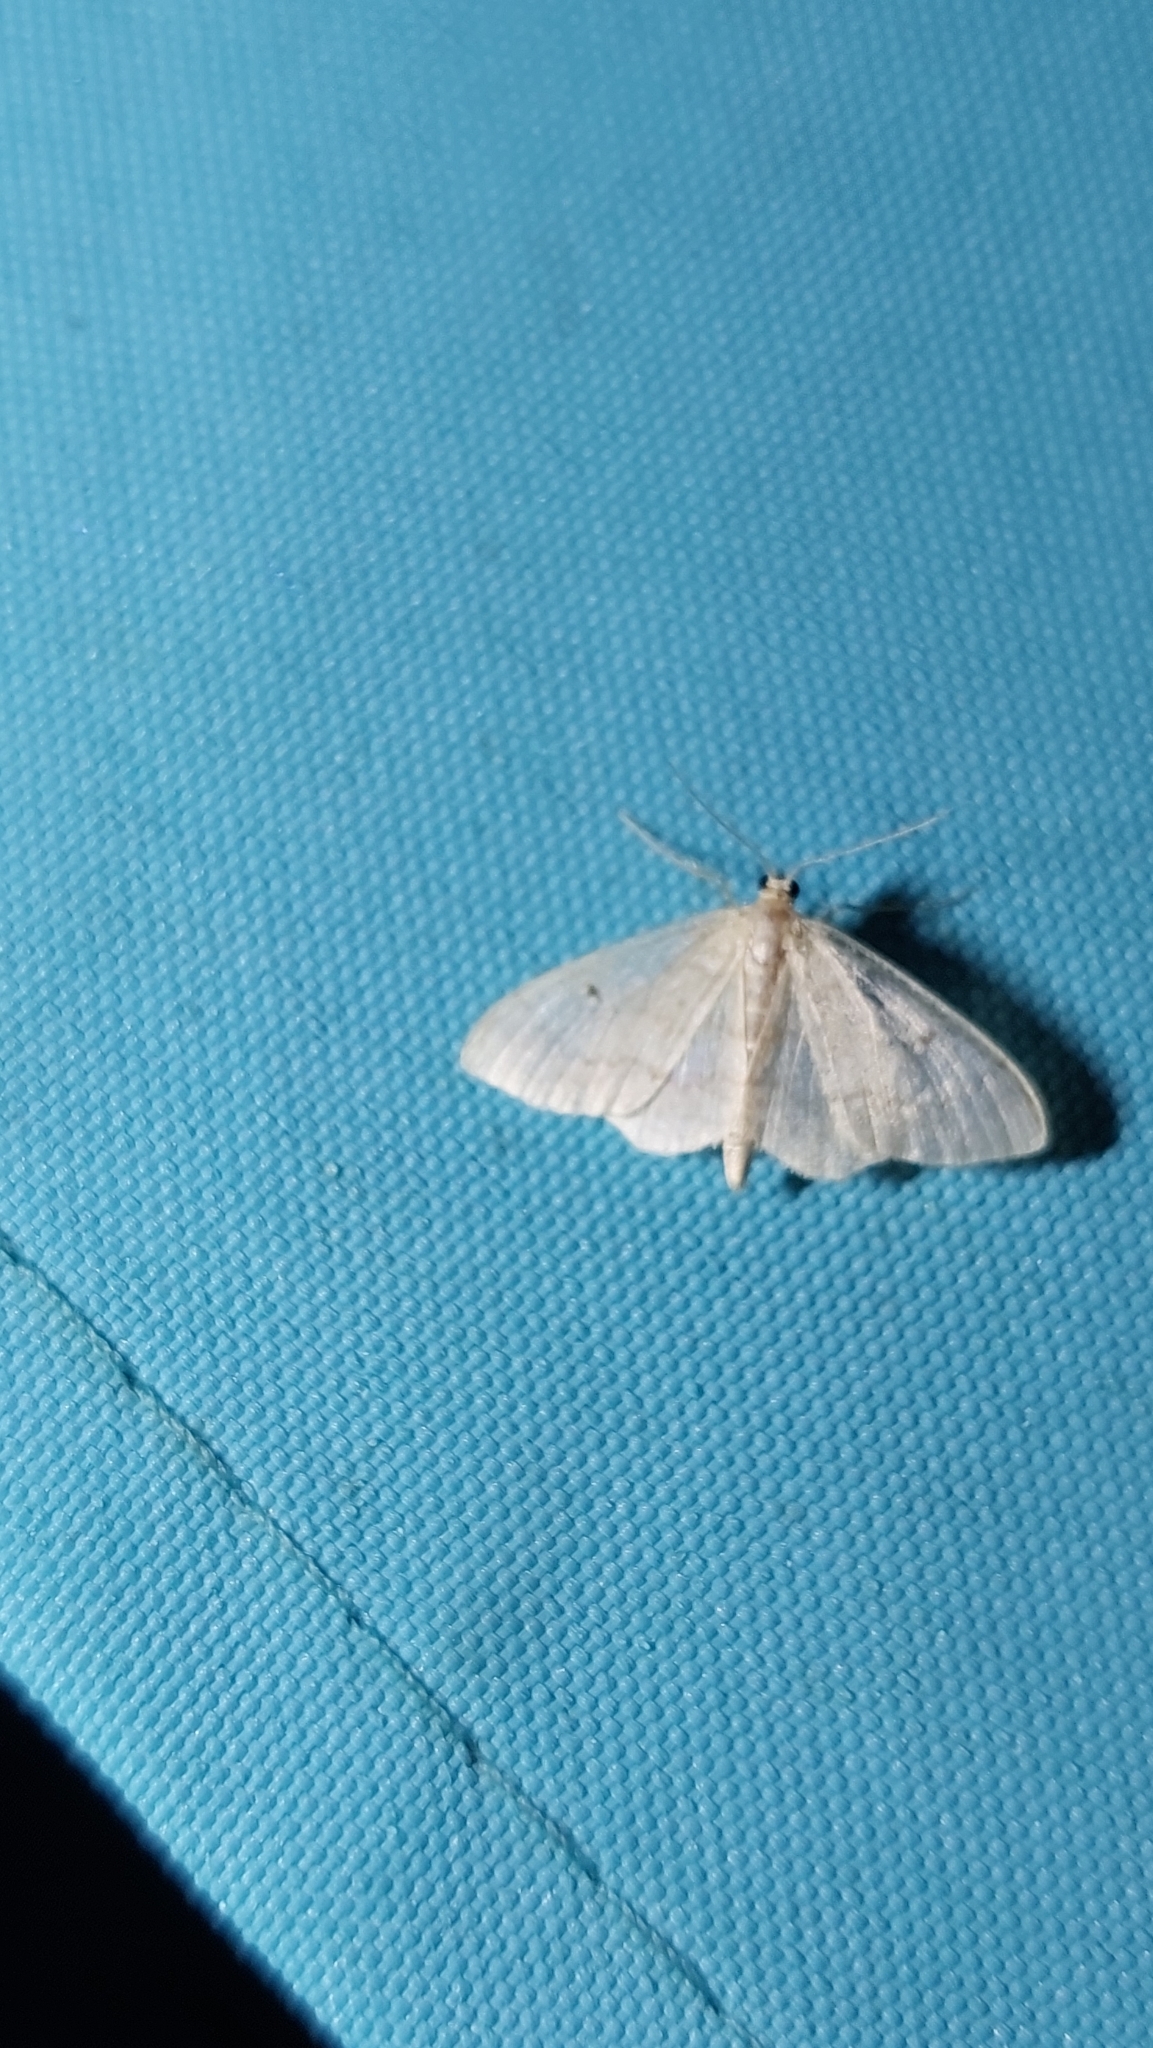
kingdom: Animalia
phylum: Arthropoda
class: Insecta
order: Lepidoptera
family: Geometridae
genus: Idaea
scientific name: Idaea biselata
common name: Small fan-footed wave
